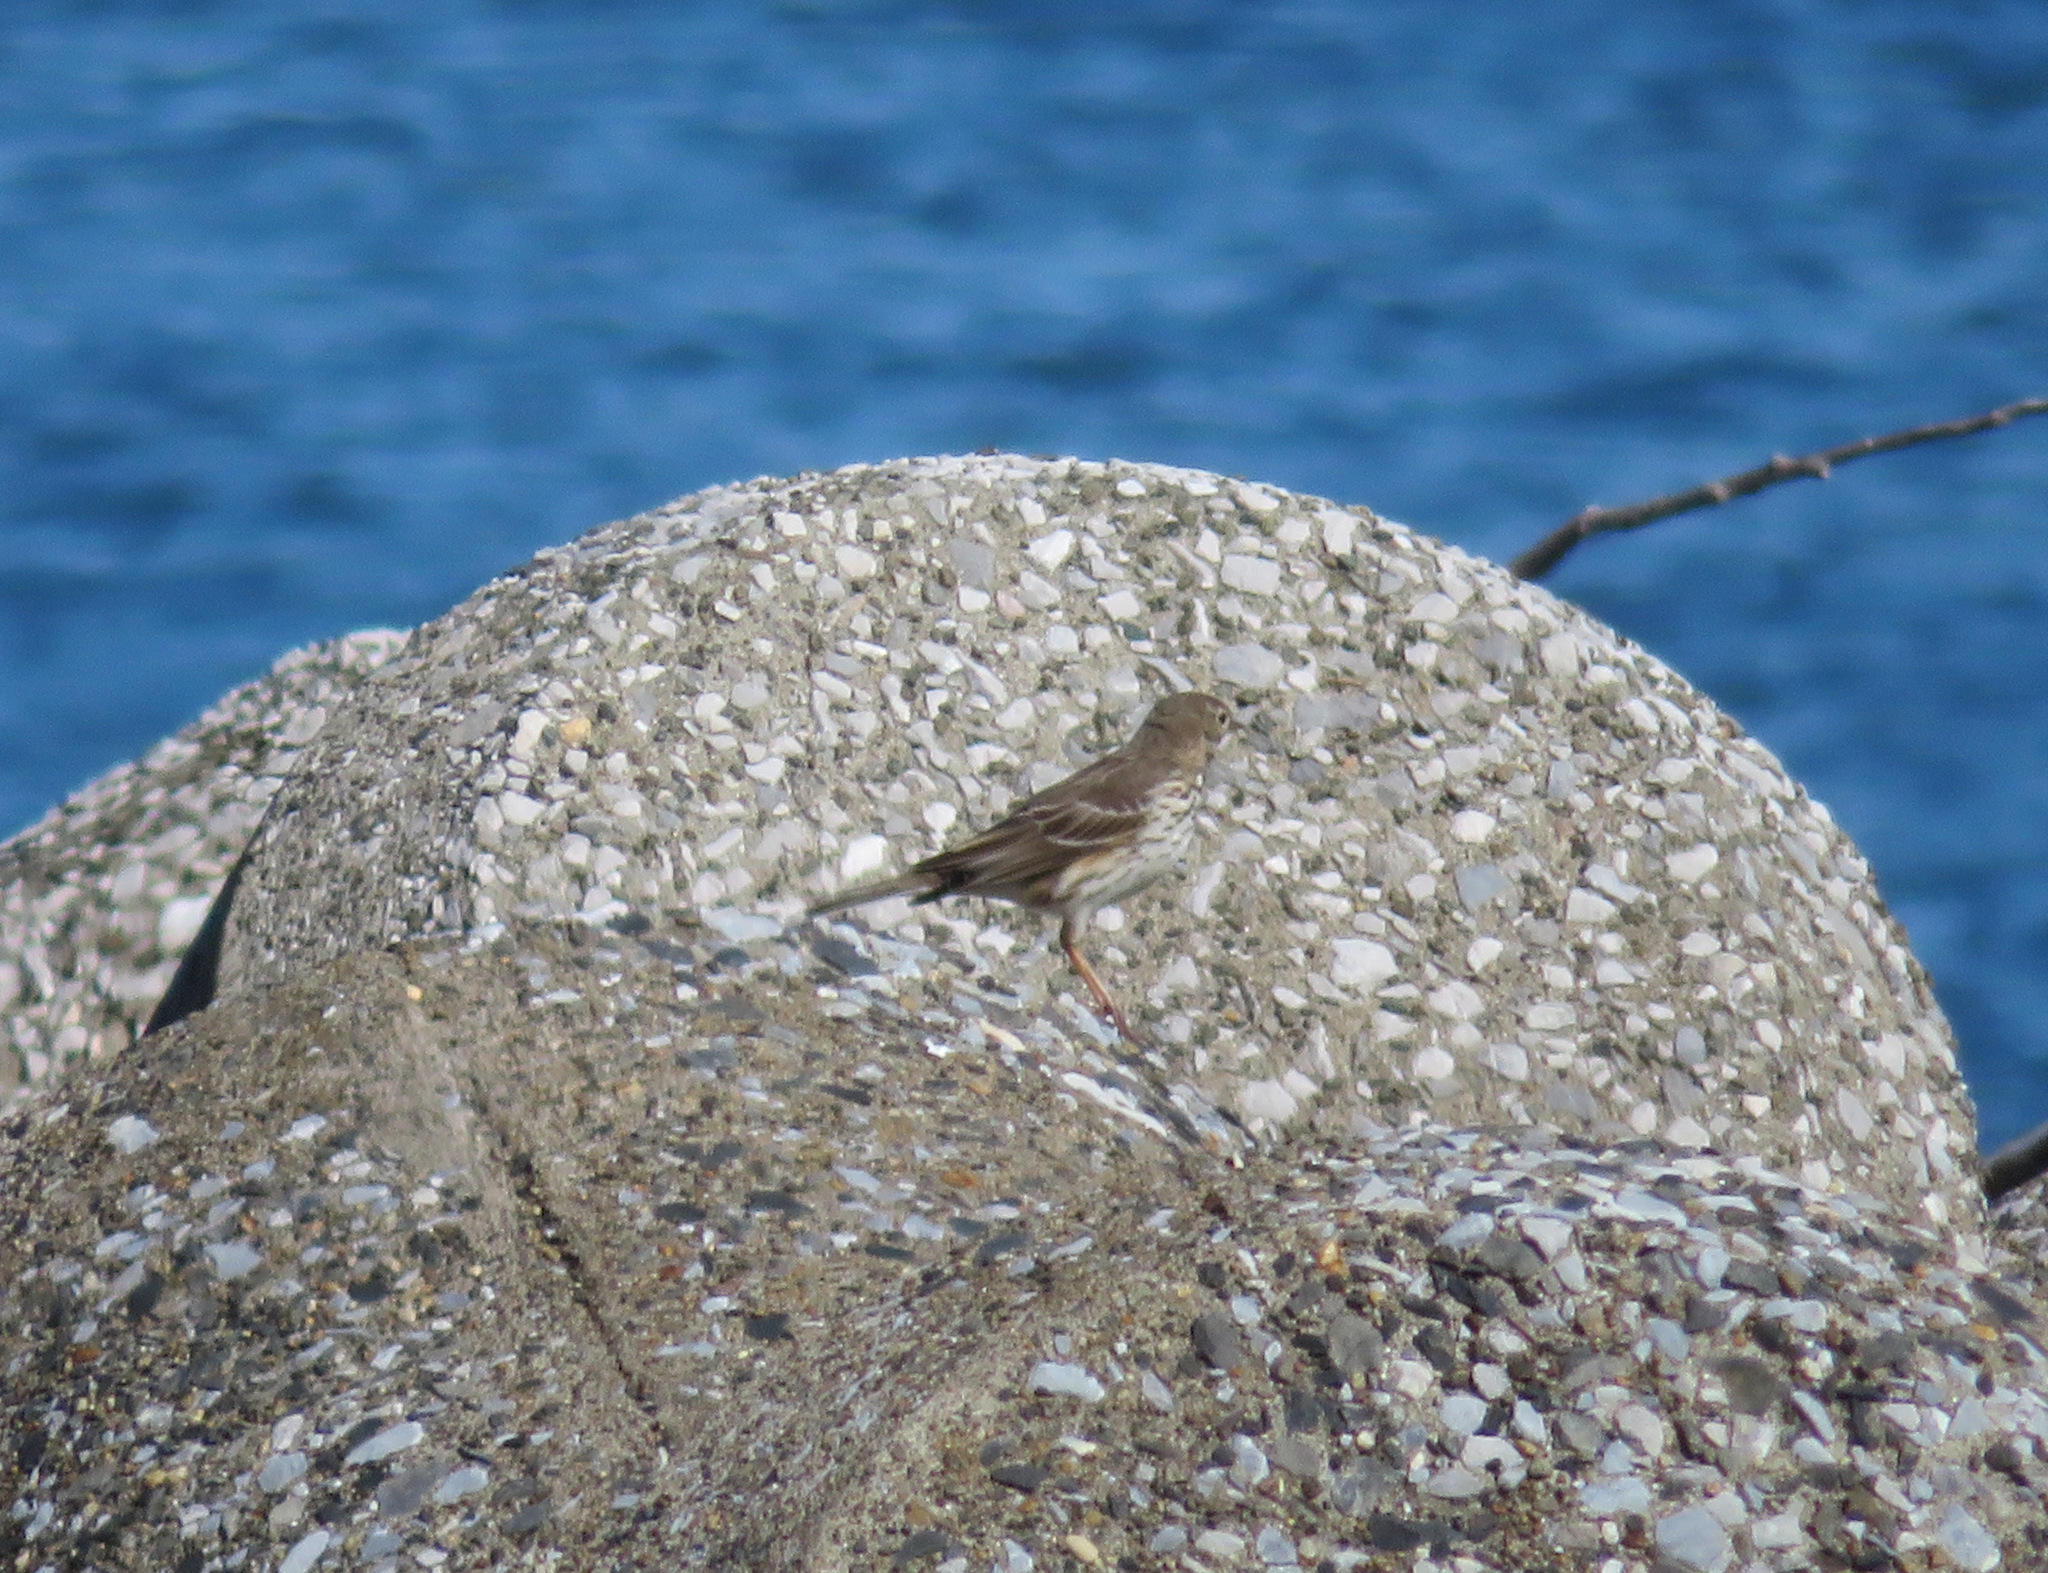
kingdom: Animalia
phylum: Chordata
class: Aves
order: Passeriformes
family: Motacillidae
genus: Anthus
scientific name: Anthus rubescens
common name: Buff-bellied pipit
